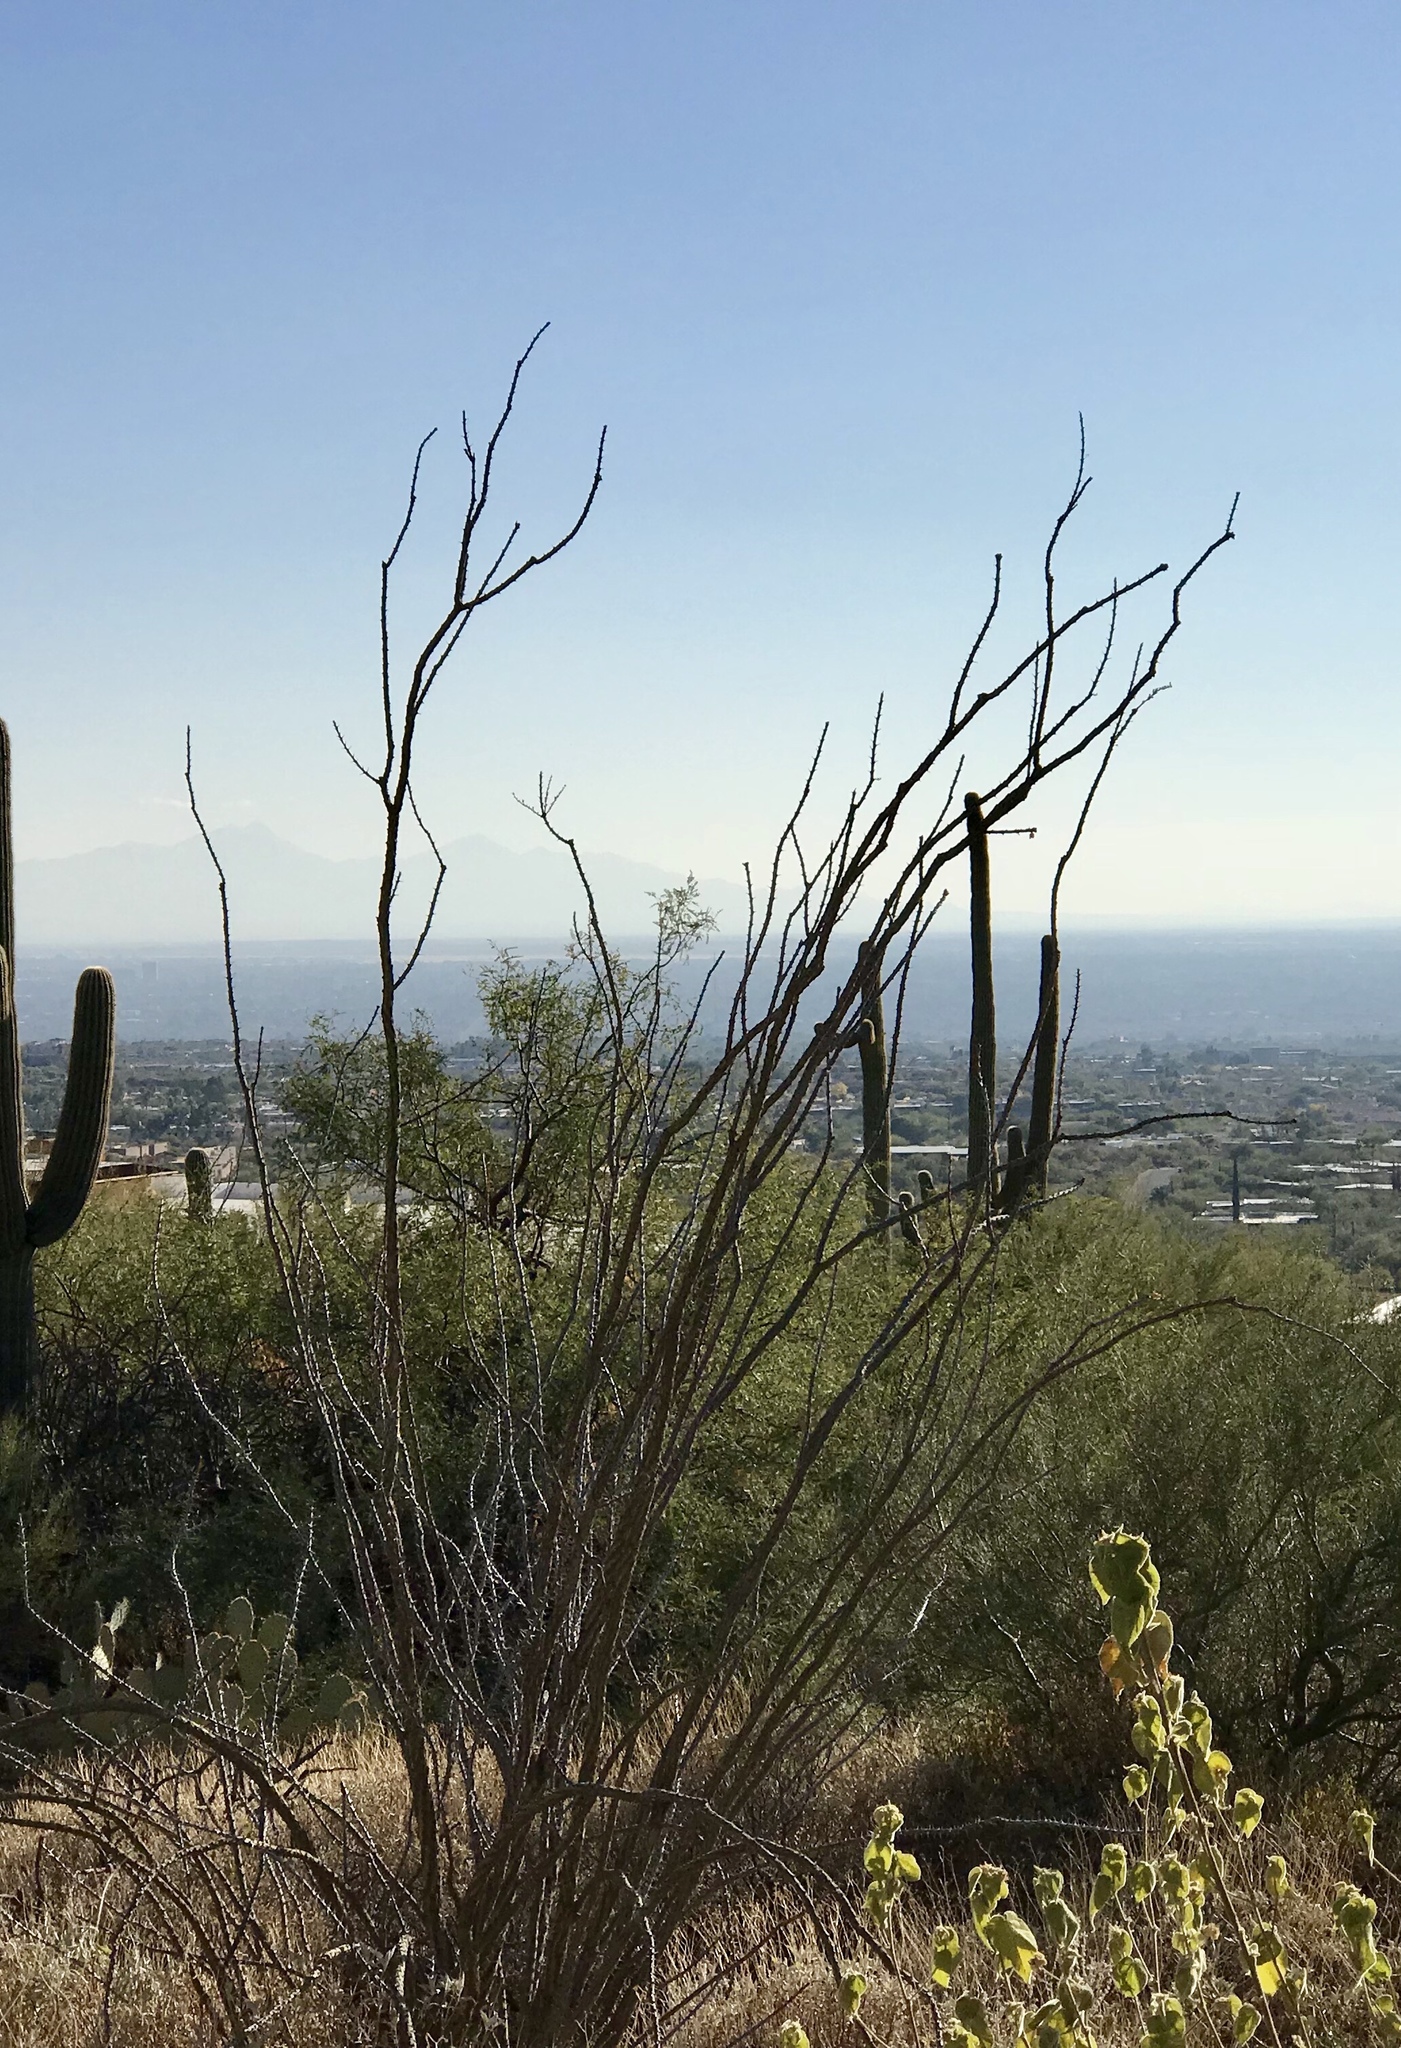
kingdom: Plantae
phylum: Tracheophyta
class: Magnoliopsida
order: Ericales
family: Fouquieriaceae
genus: Fouquieria
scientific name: Fouquieria splendens
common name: Vine-cactus
